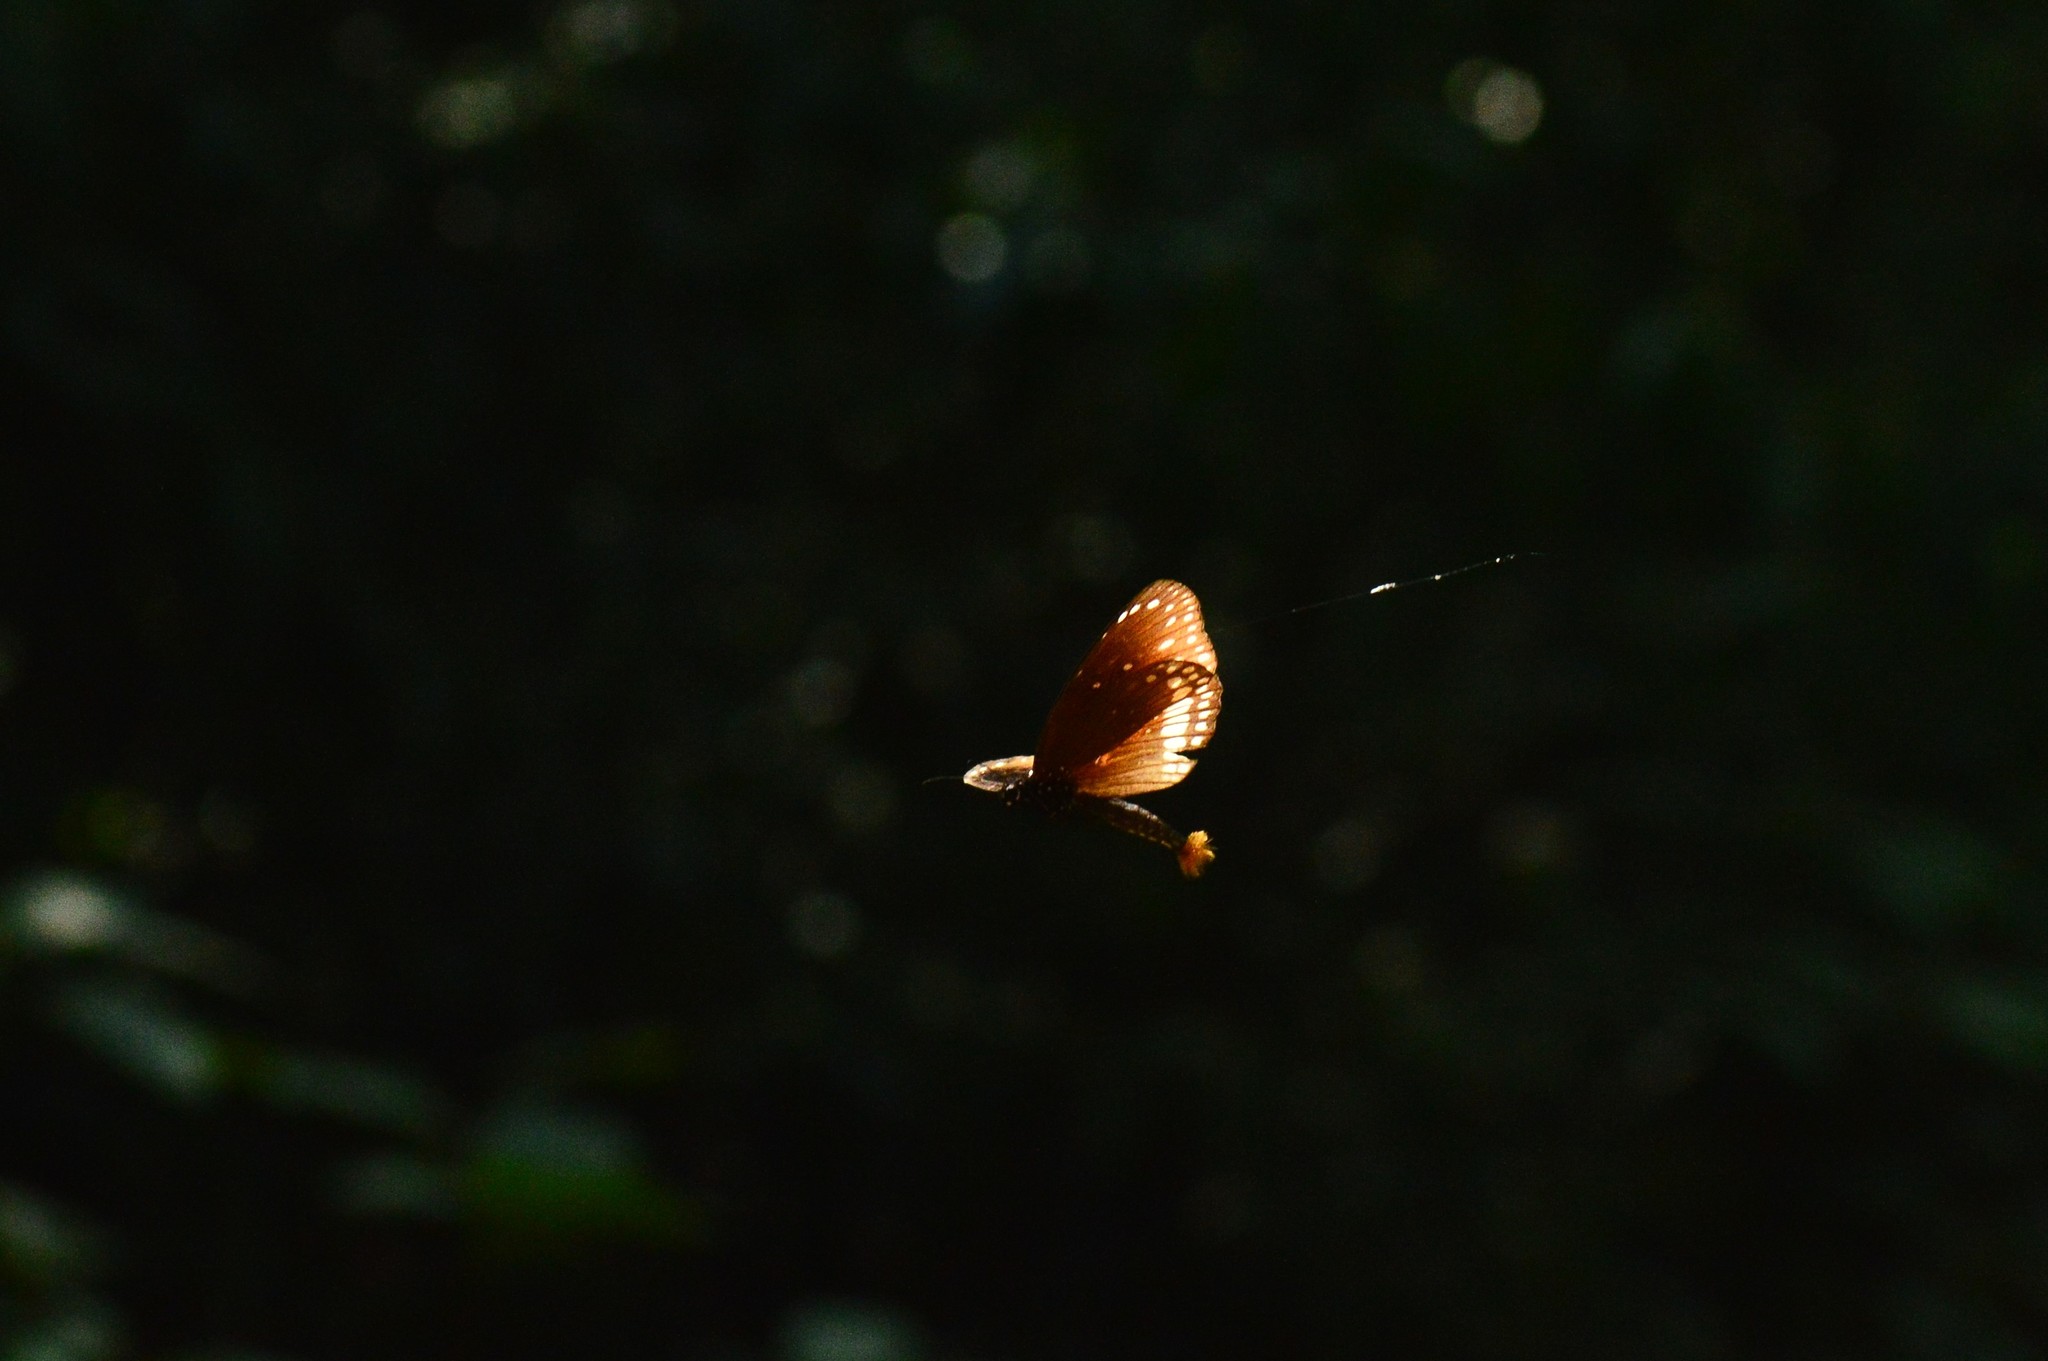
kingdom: Animalia
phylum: Arthropoda
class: Insecta
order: Lepidoptera
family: Nymphalidae
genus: Euploea
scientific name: Euploea core
